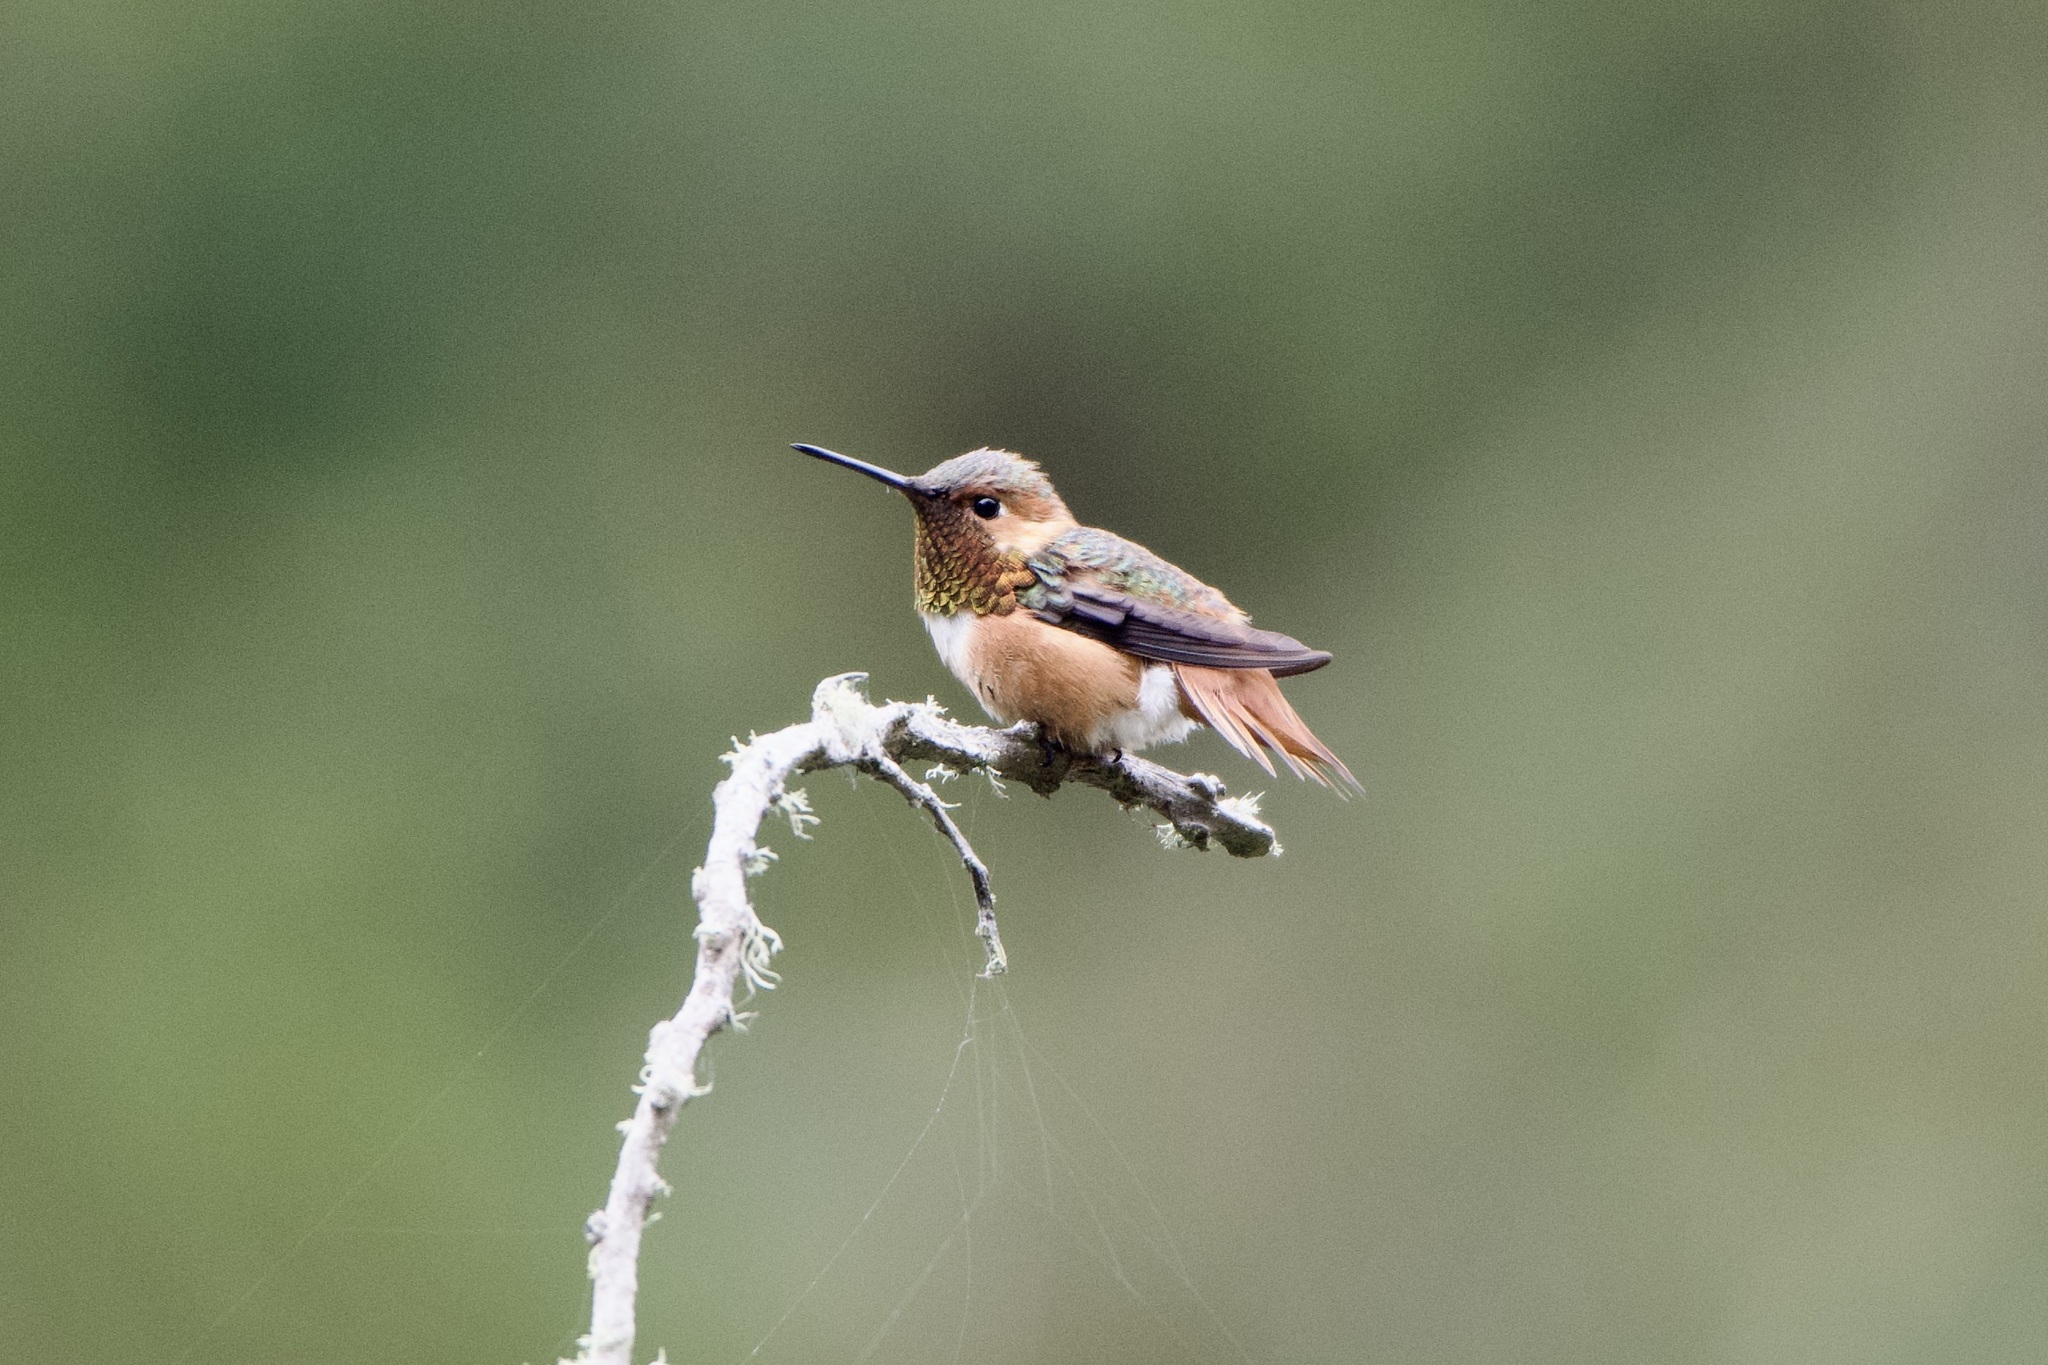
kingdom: Animalia
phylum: Chordata
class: Aves
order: Apodiformes
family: Trochilidae
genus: Selasphorus
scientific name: Selasphorus sasin
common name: Allen's hummingbird
